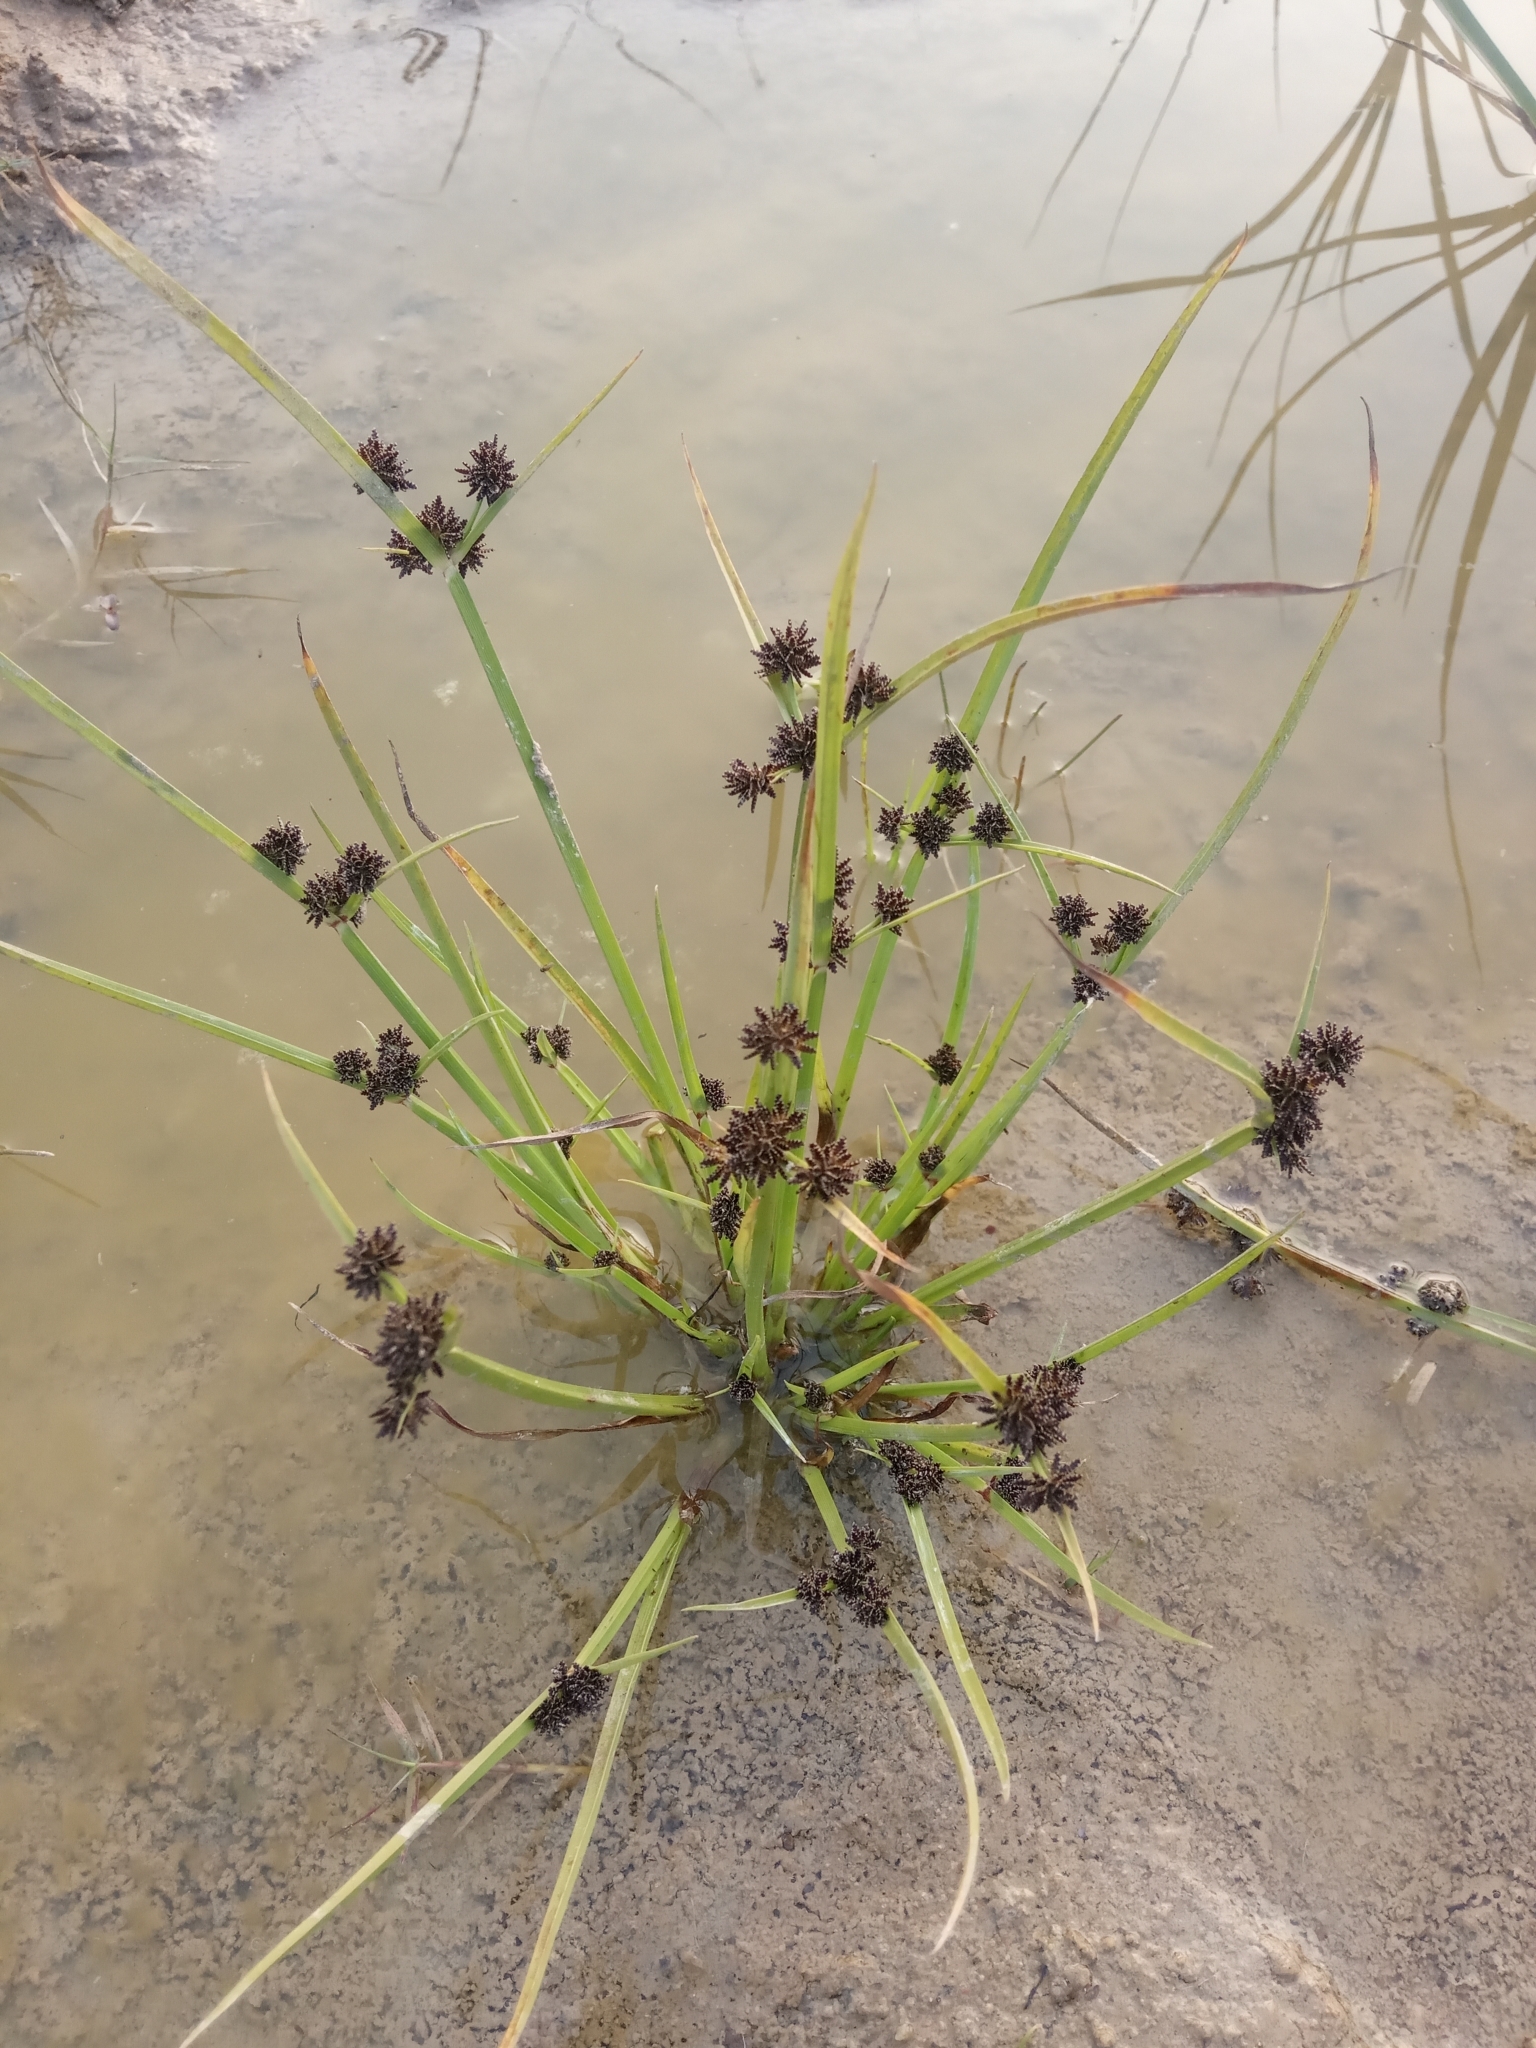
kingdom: Plantae
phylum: Tracheophyta
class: Liliopsida
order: Poales
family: Cyperaceae
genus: Cyperus
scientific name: Cyperus difformis
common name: Variable flatsedge
